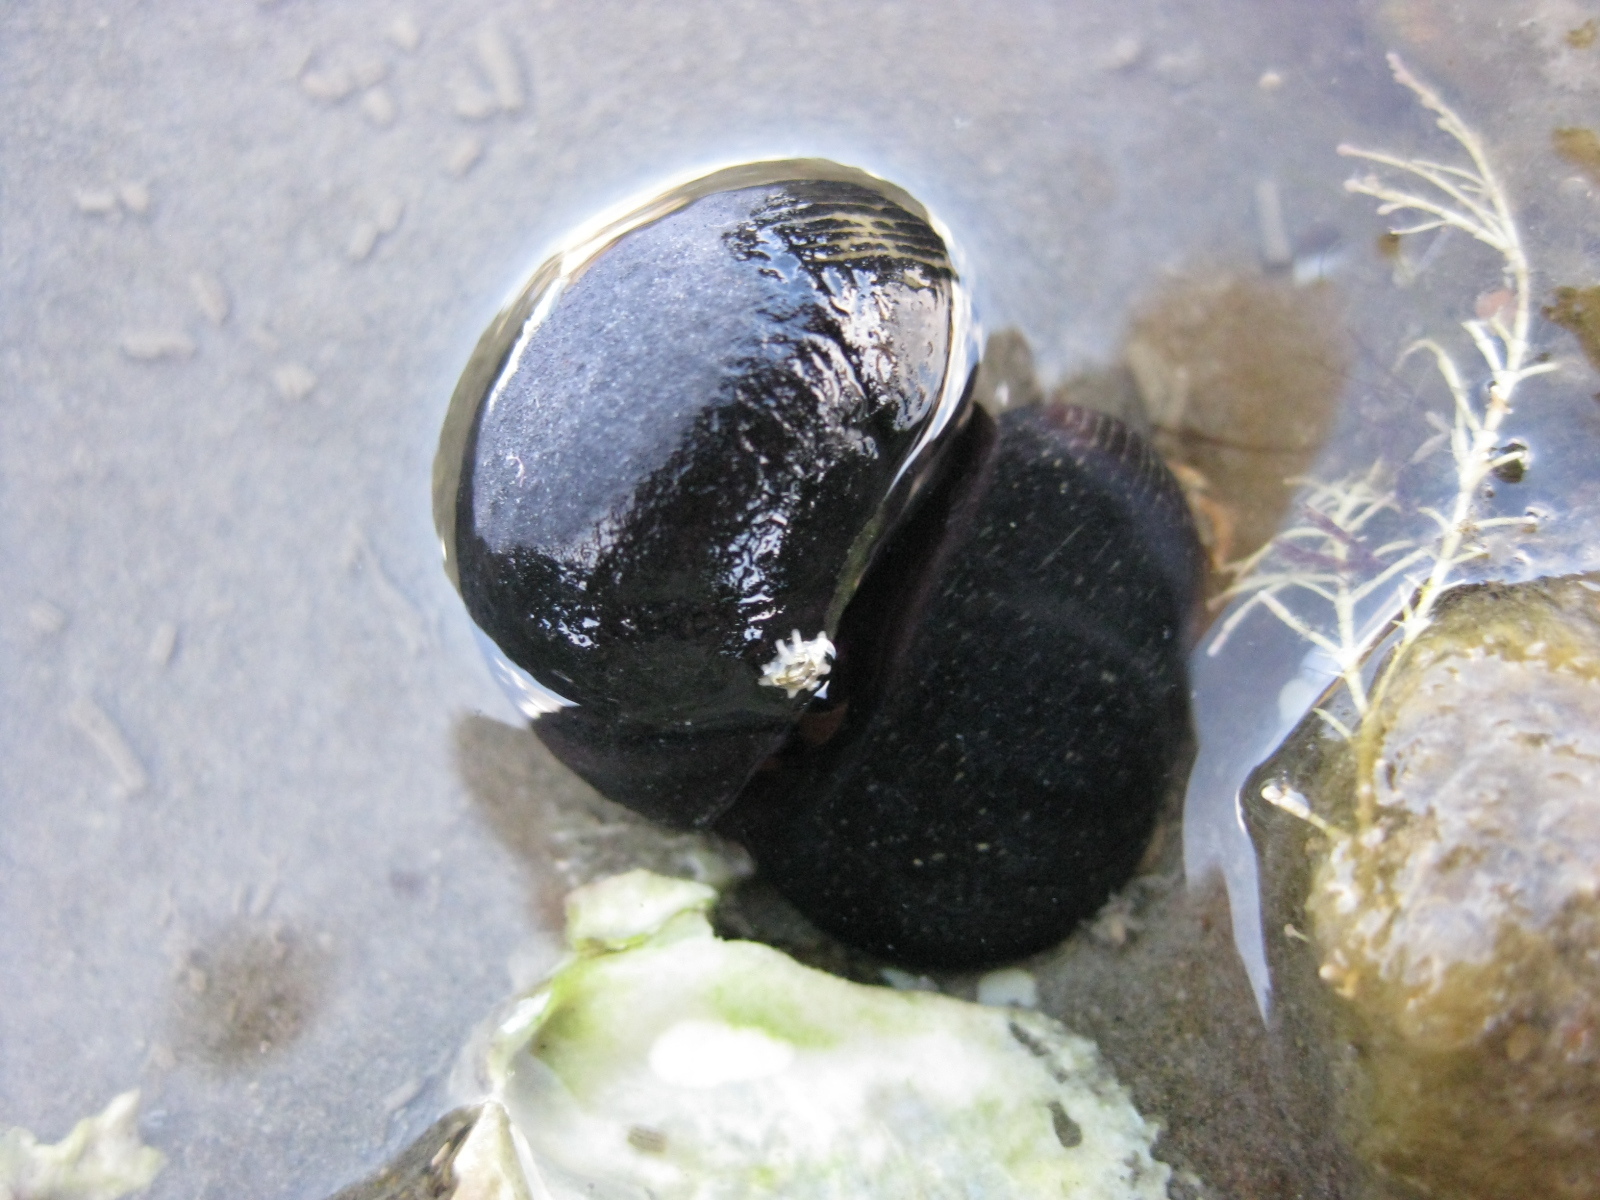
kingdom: Animalia
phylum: Mollusca
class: Gastropoda
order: Cycloneritida
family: Neritidae
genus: Nerita
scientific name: Nerita melanotragus
